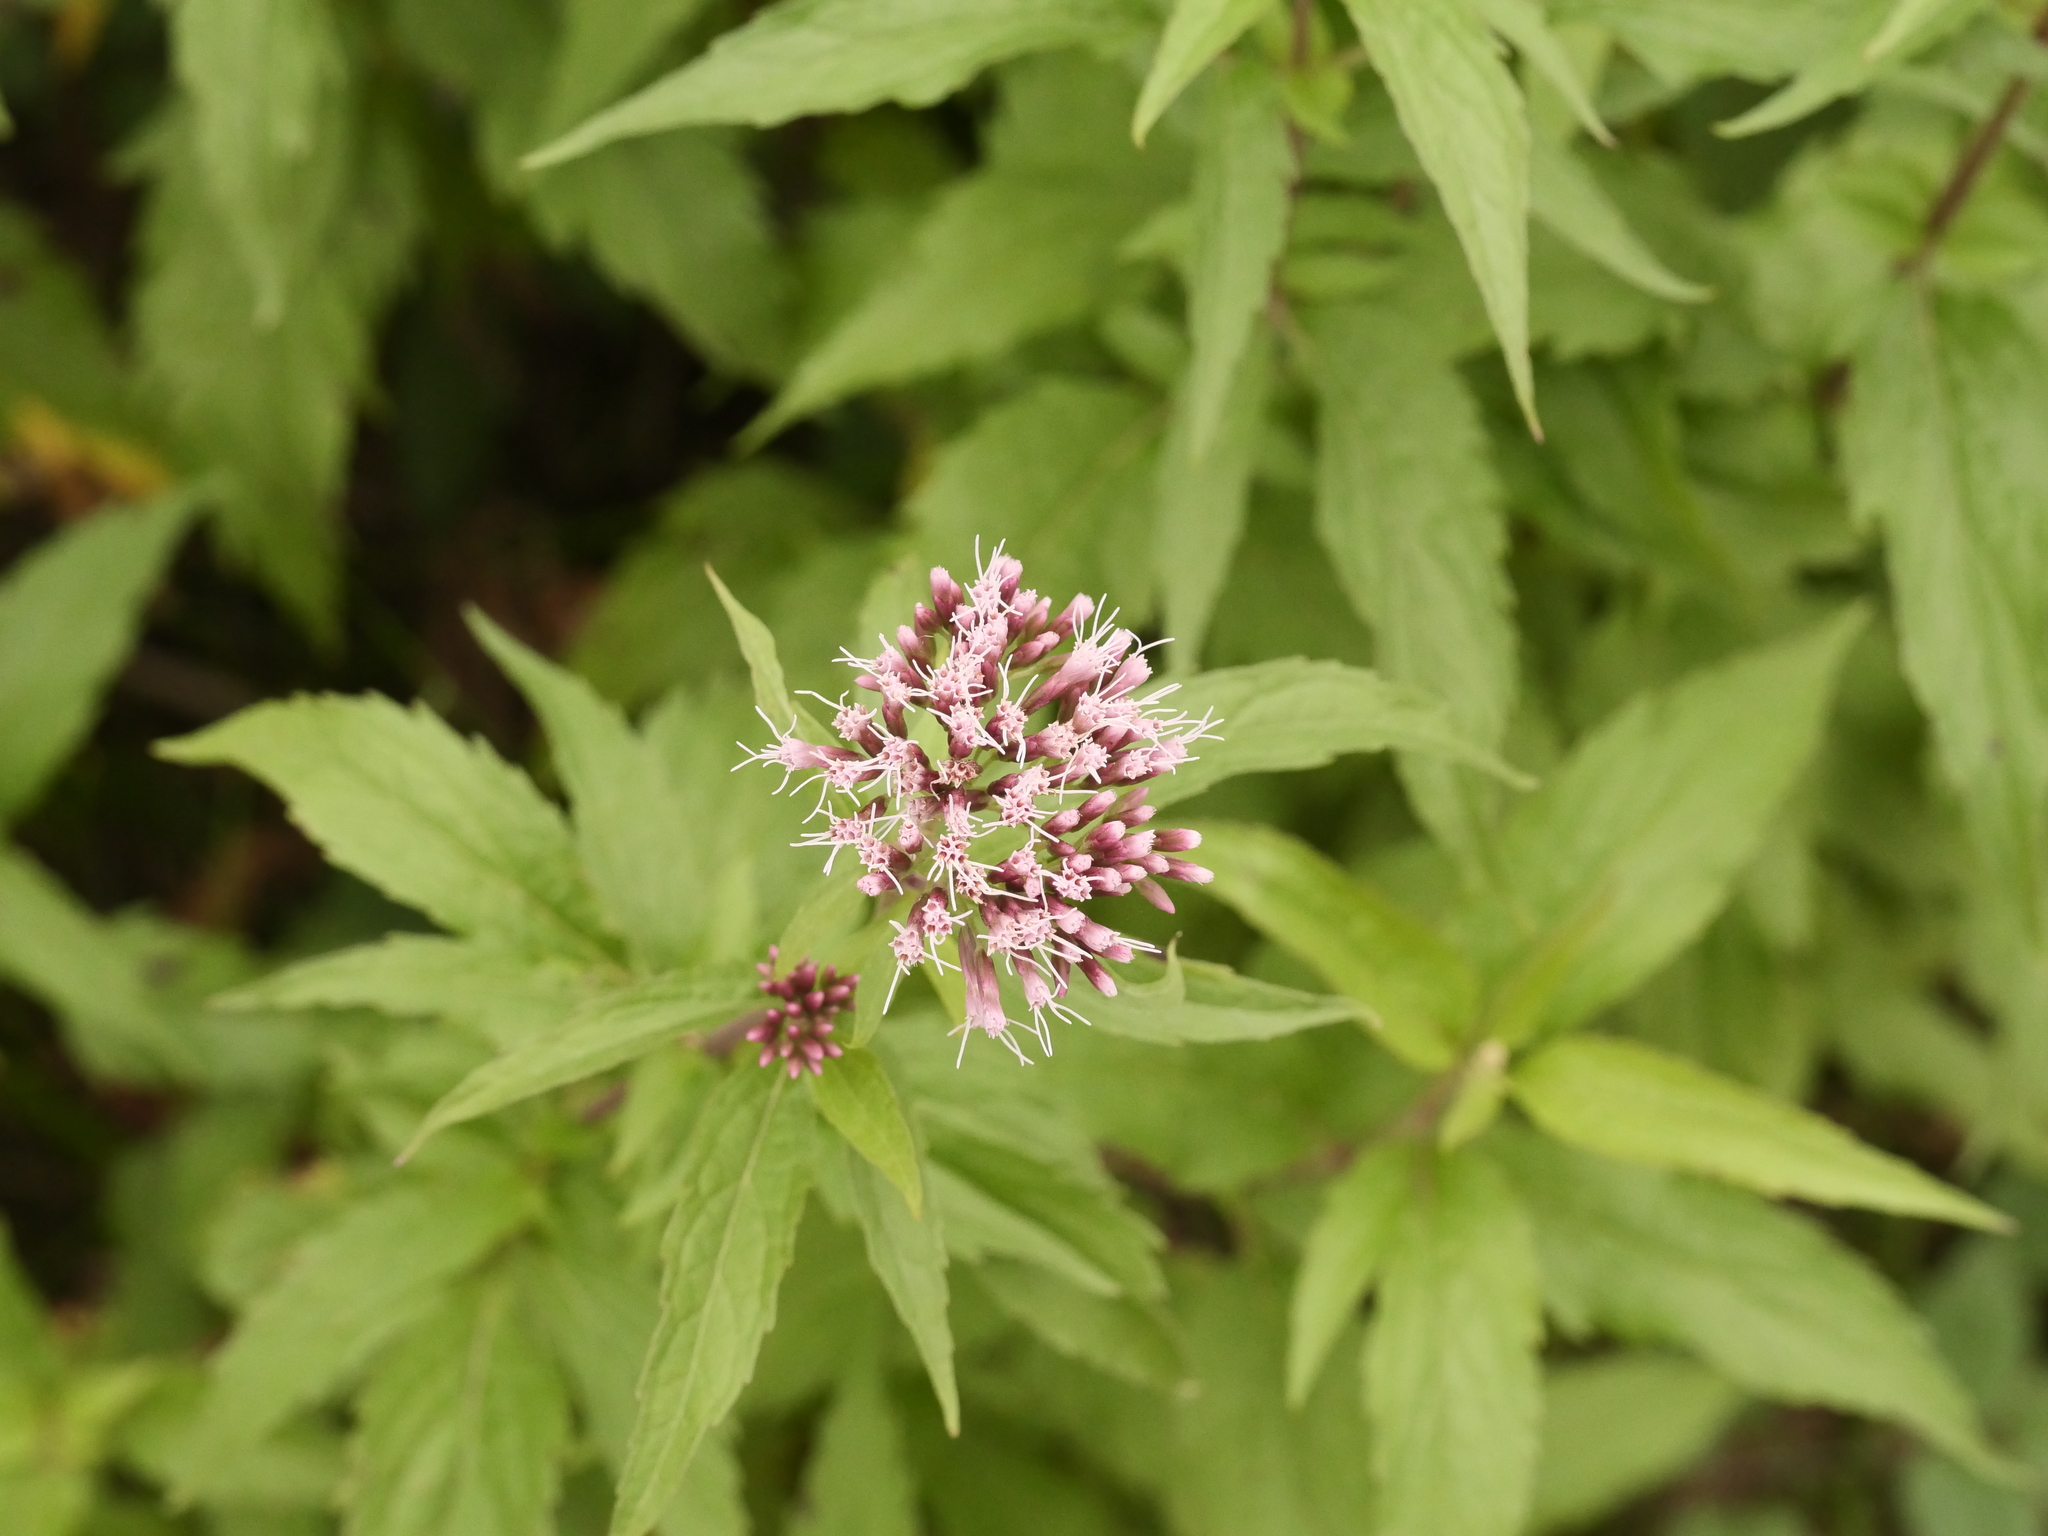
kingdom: Plantae
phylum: Tracheophyta
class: Magnoliopsida
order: Asterales
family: Asteraceae
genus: Eupatorium
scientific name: Eupatorium cannabinum
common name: Hemp-agrimony
